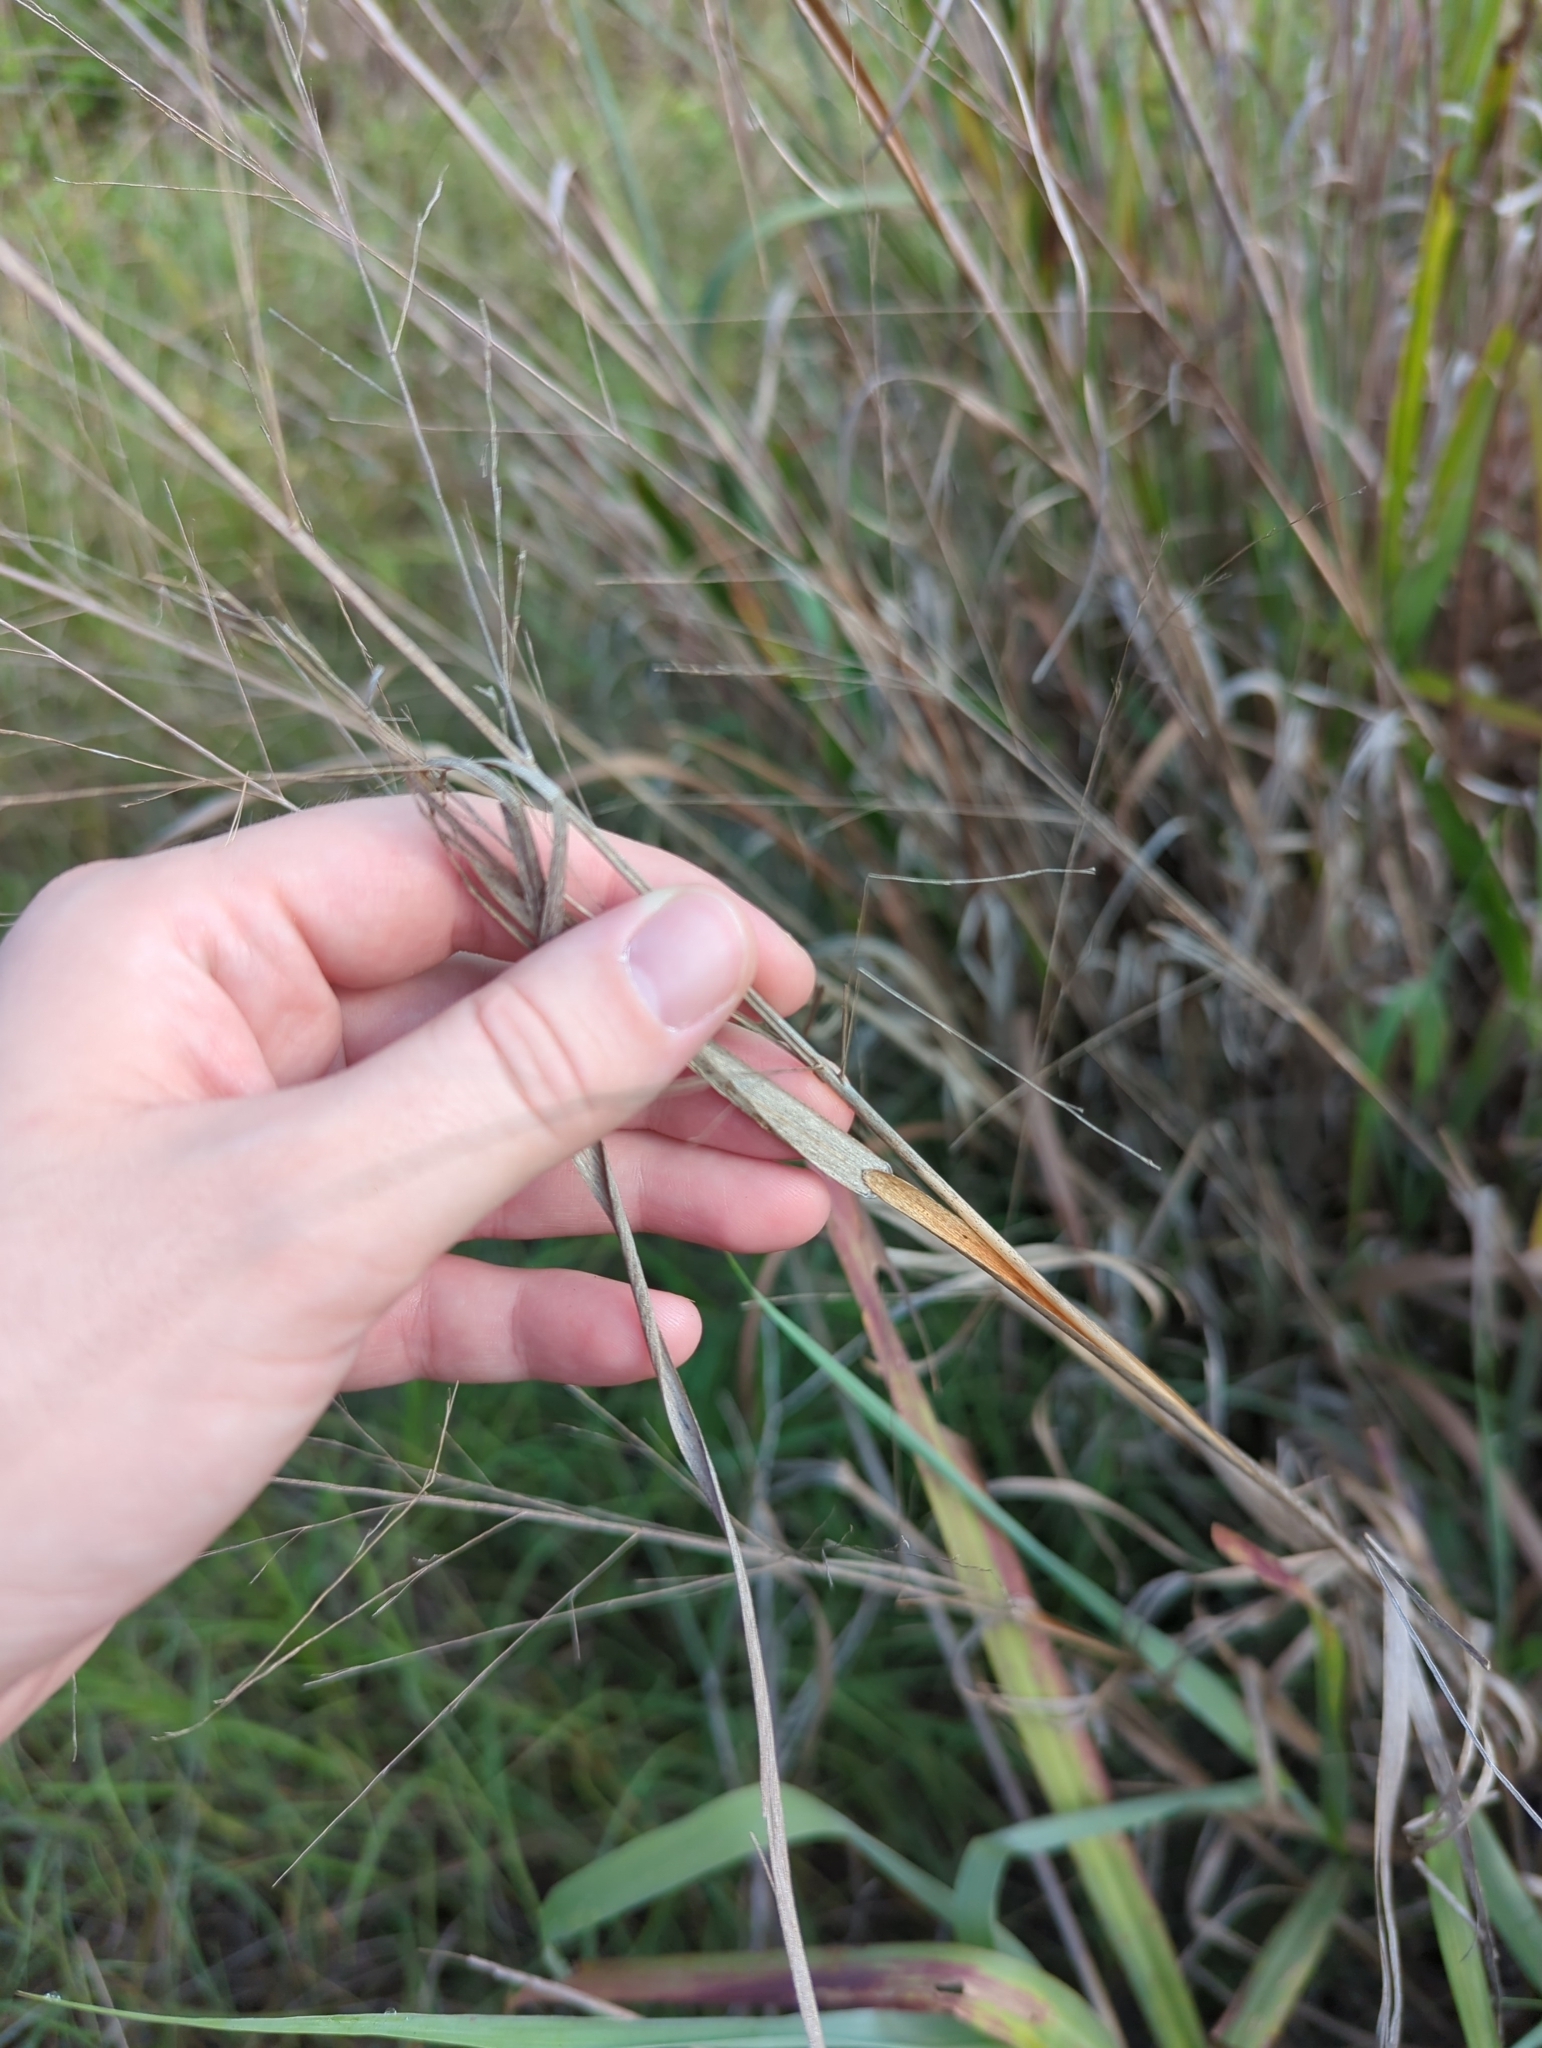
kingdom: Plantae
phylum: Tracheophyta
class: Liliopsida
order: Poales
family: Poaceae
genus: Panicum
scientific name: Panicum virgatum
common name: Switchgrass
